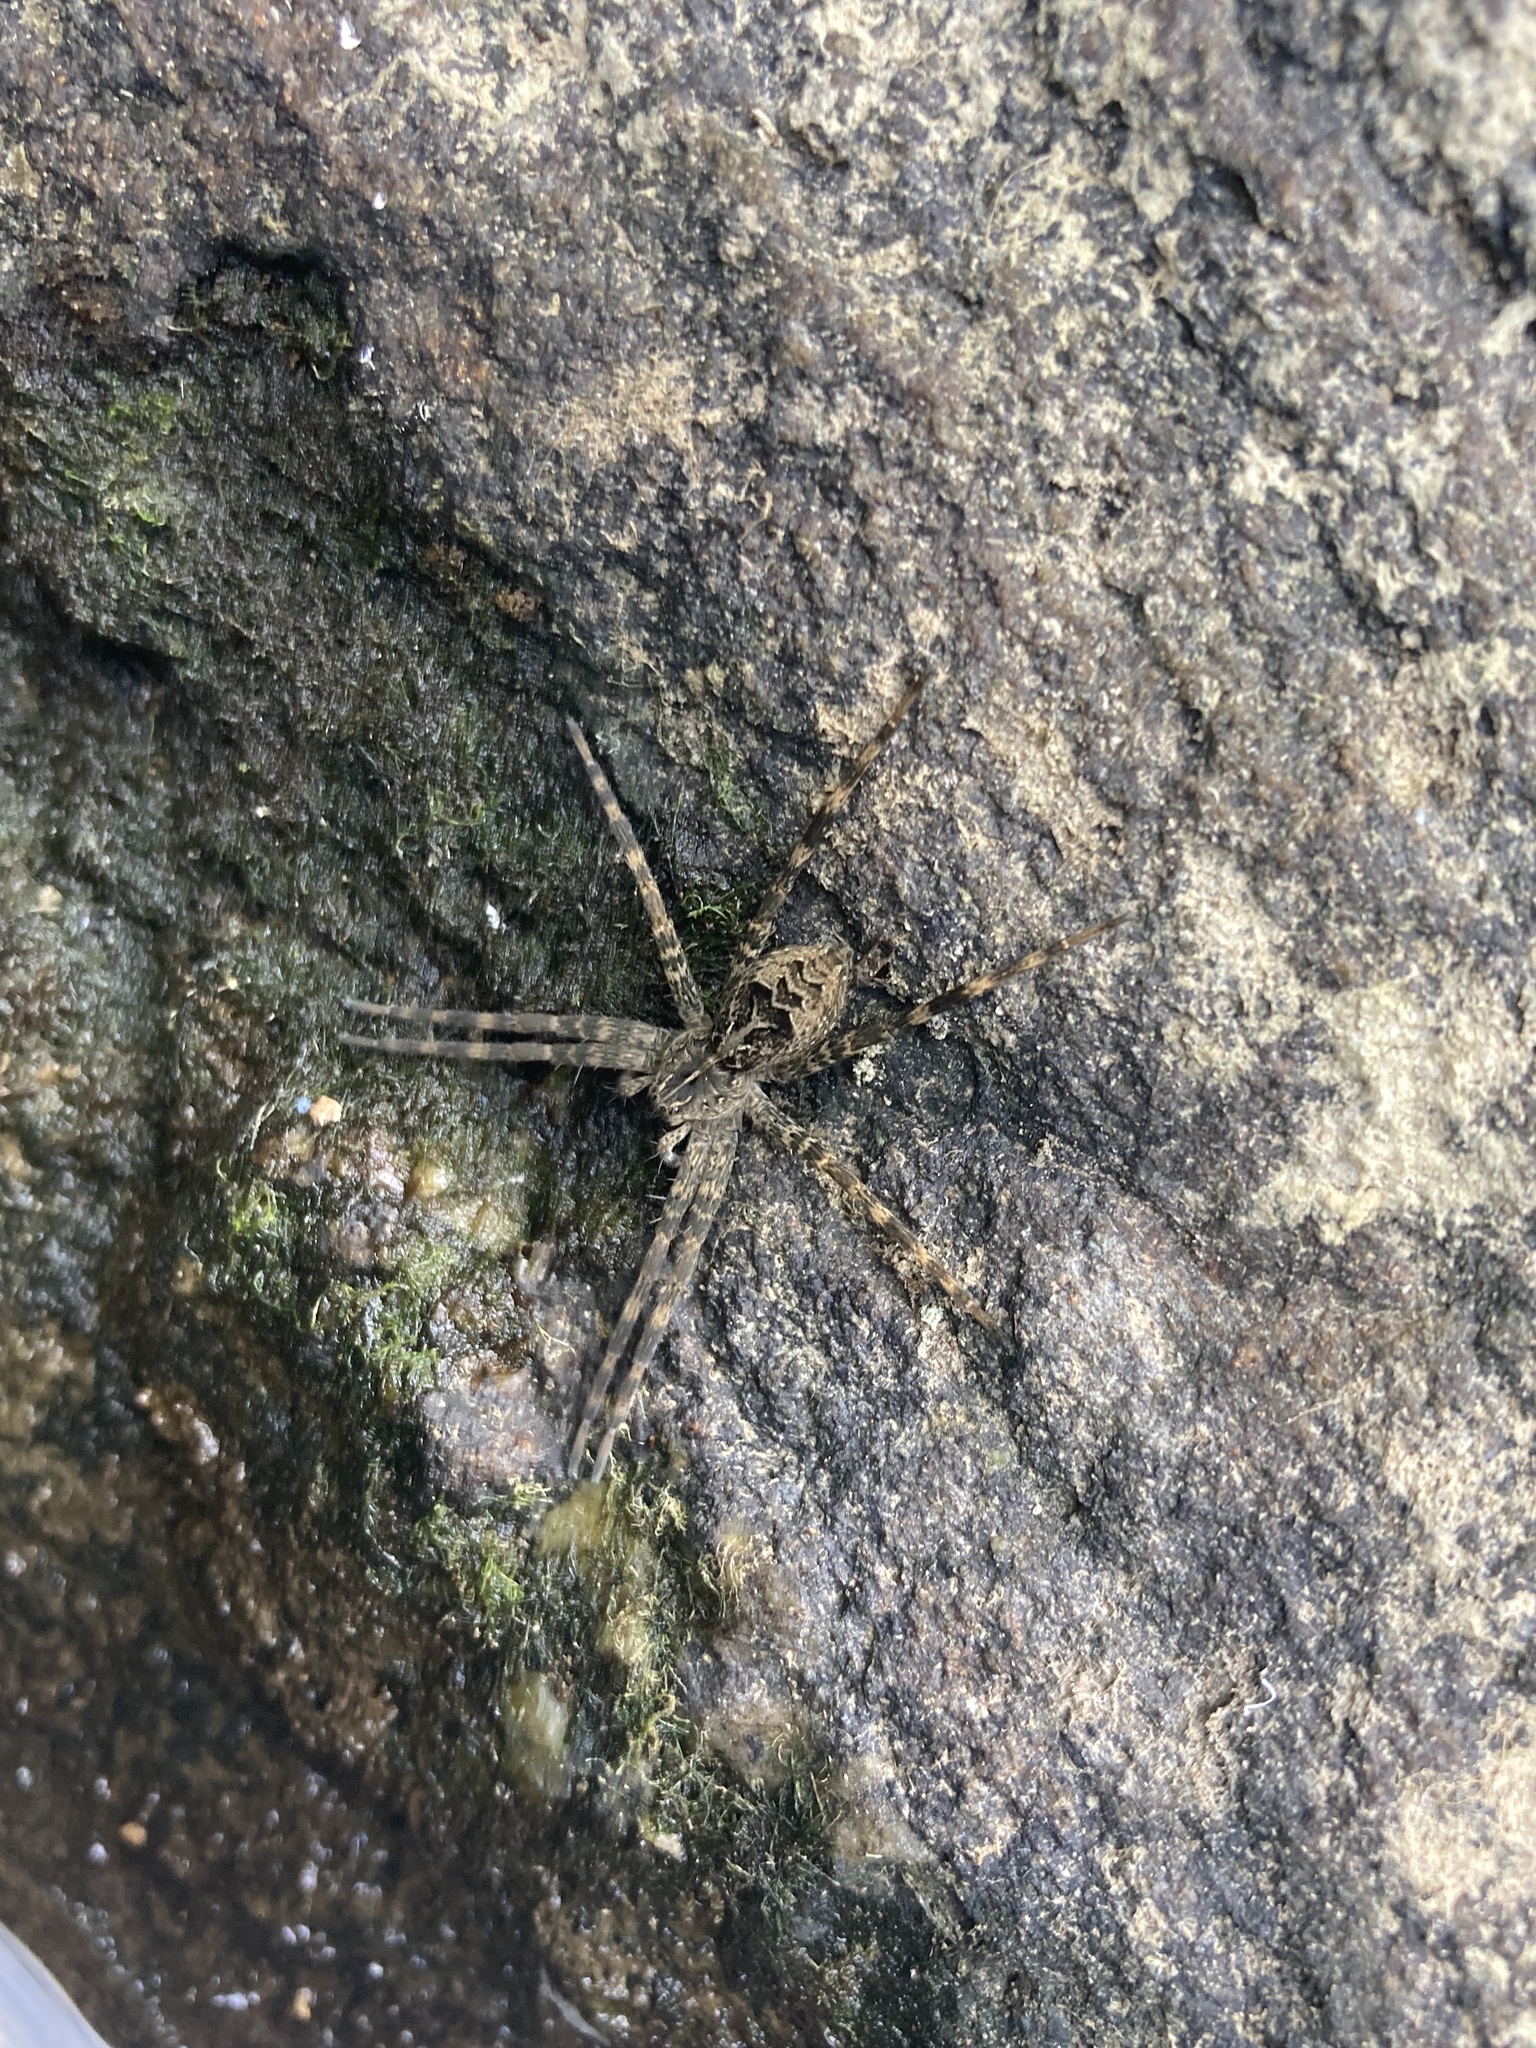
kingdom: Animalia
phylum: Arthropoda
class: Arachnida
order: Araneae
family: Pisauridae
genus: Dolomedes
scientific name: Dolomedes scriptus
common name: Striped fishing spider
